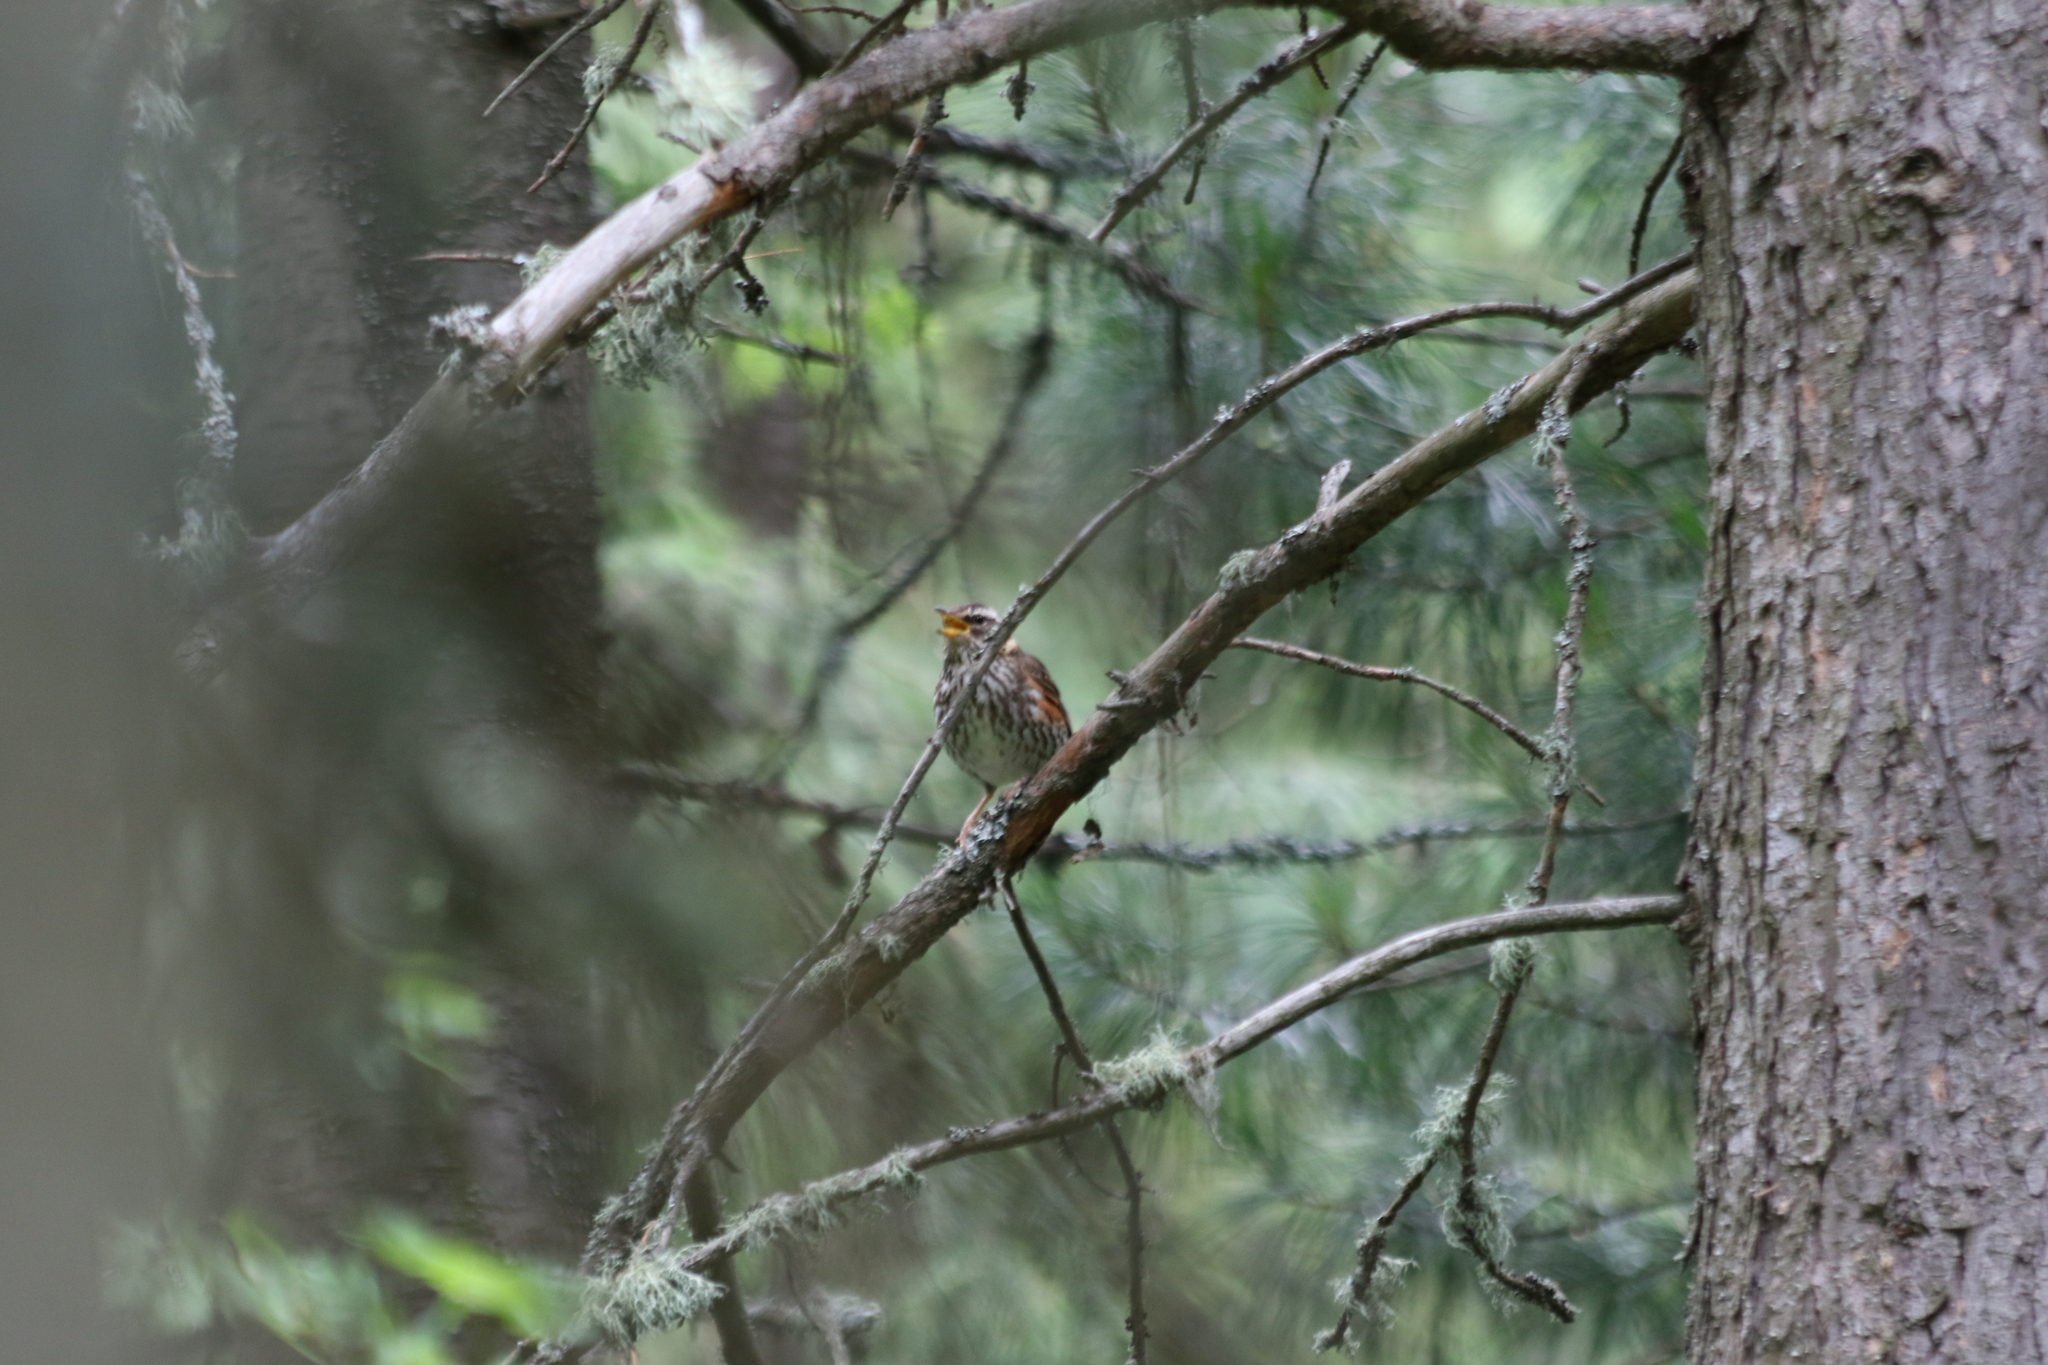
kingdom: Animalia
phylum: Chordata
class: Aves
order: Passeriformes
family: Turdidae
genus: Turdus
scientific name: Turdus iliacus
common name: Redwing
